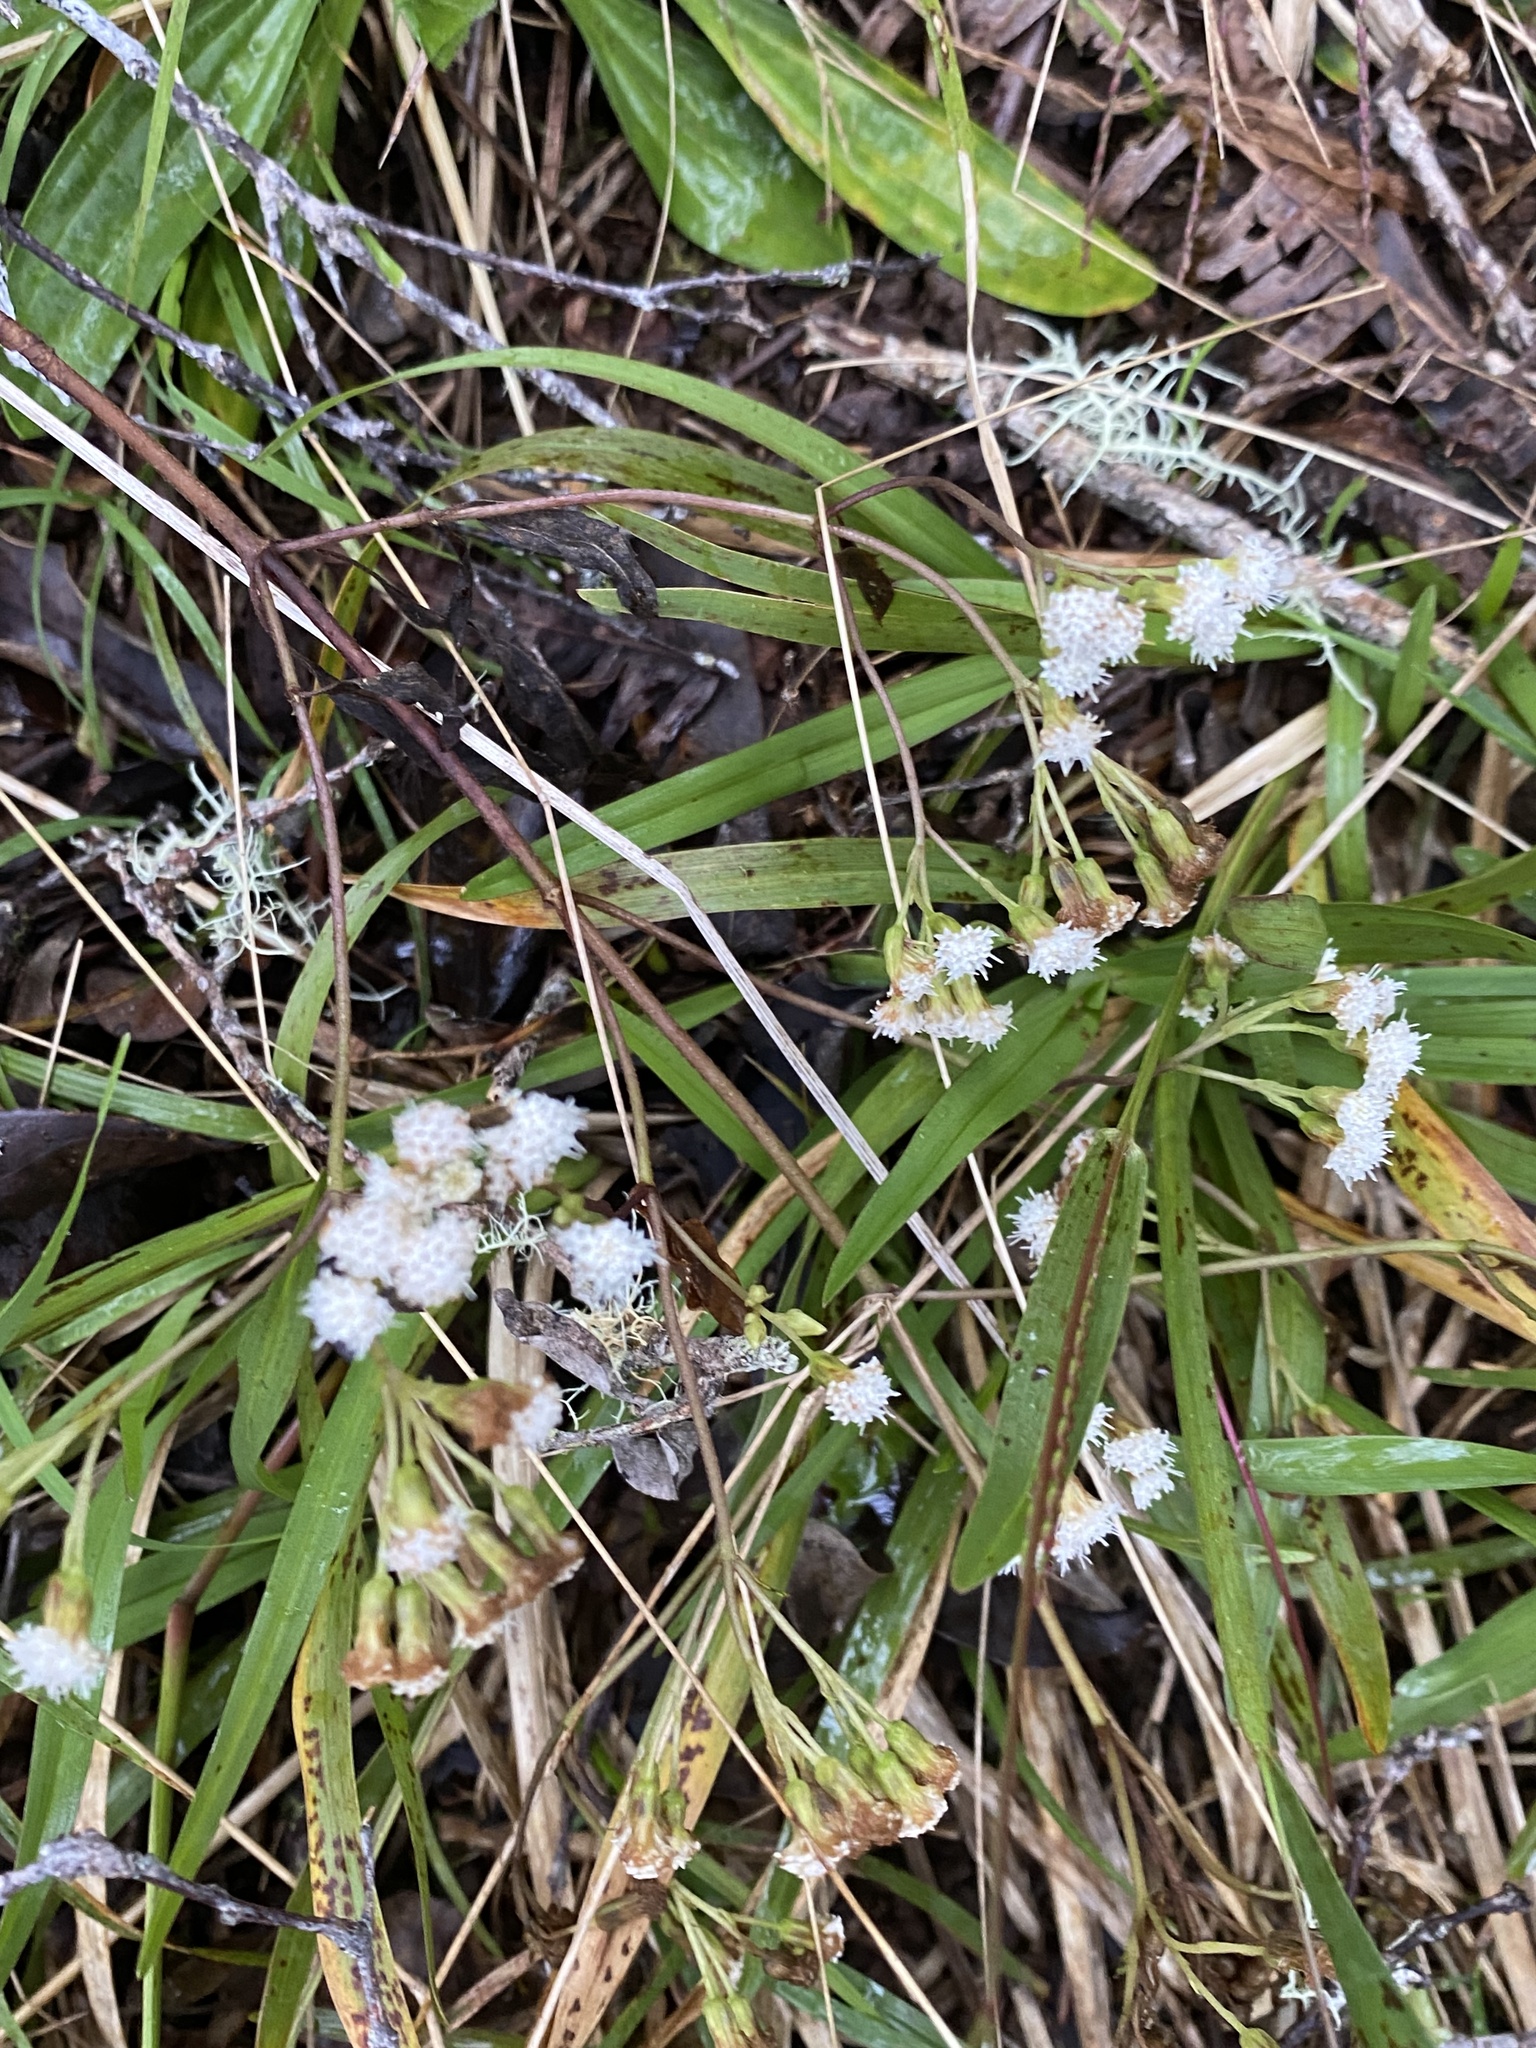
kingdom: Plantae
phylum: Tracheophyta
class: Magnoliopsida
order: Asterales
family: Asteraceae
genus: Ageratina
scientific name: Ageratina riparia
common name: Creeping croftonweed
